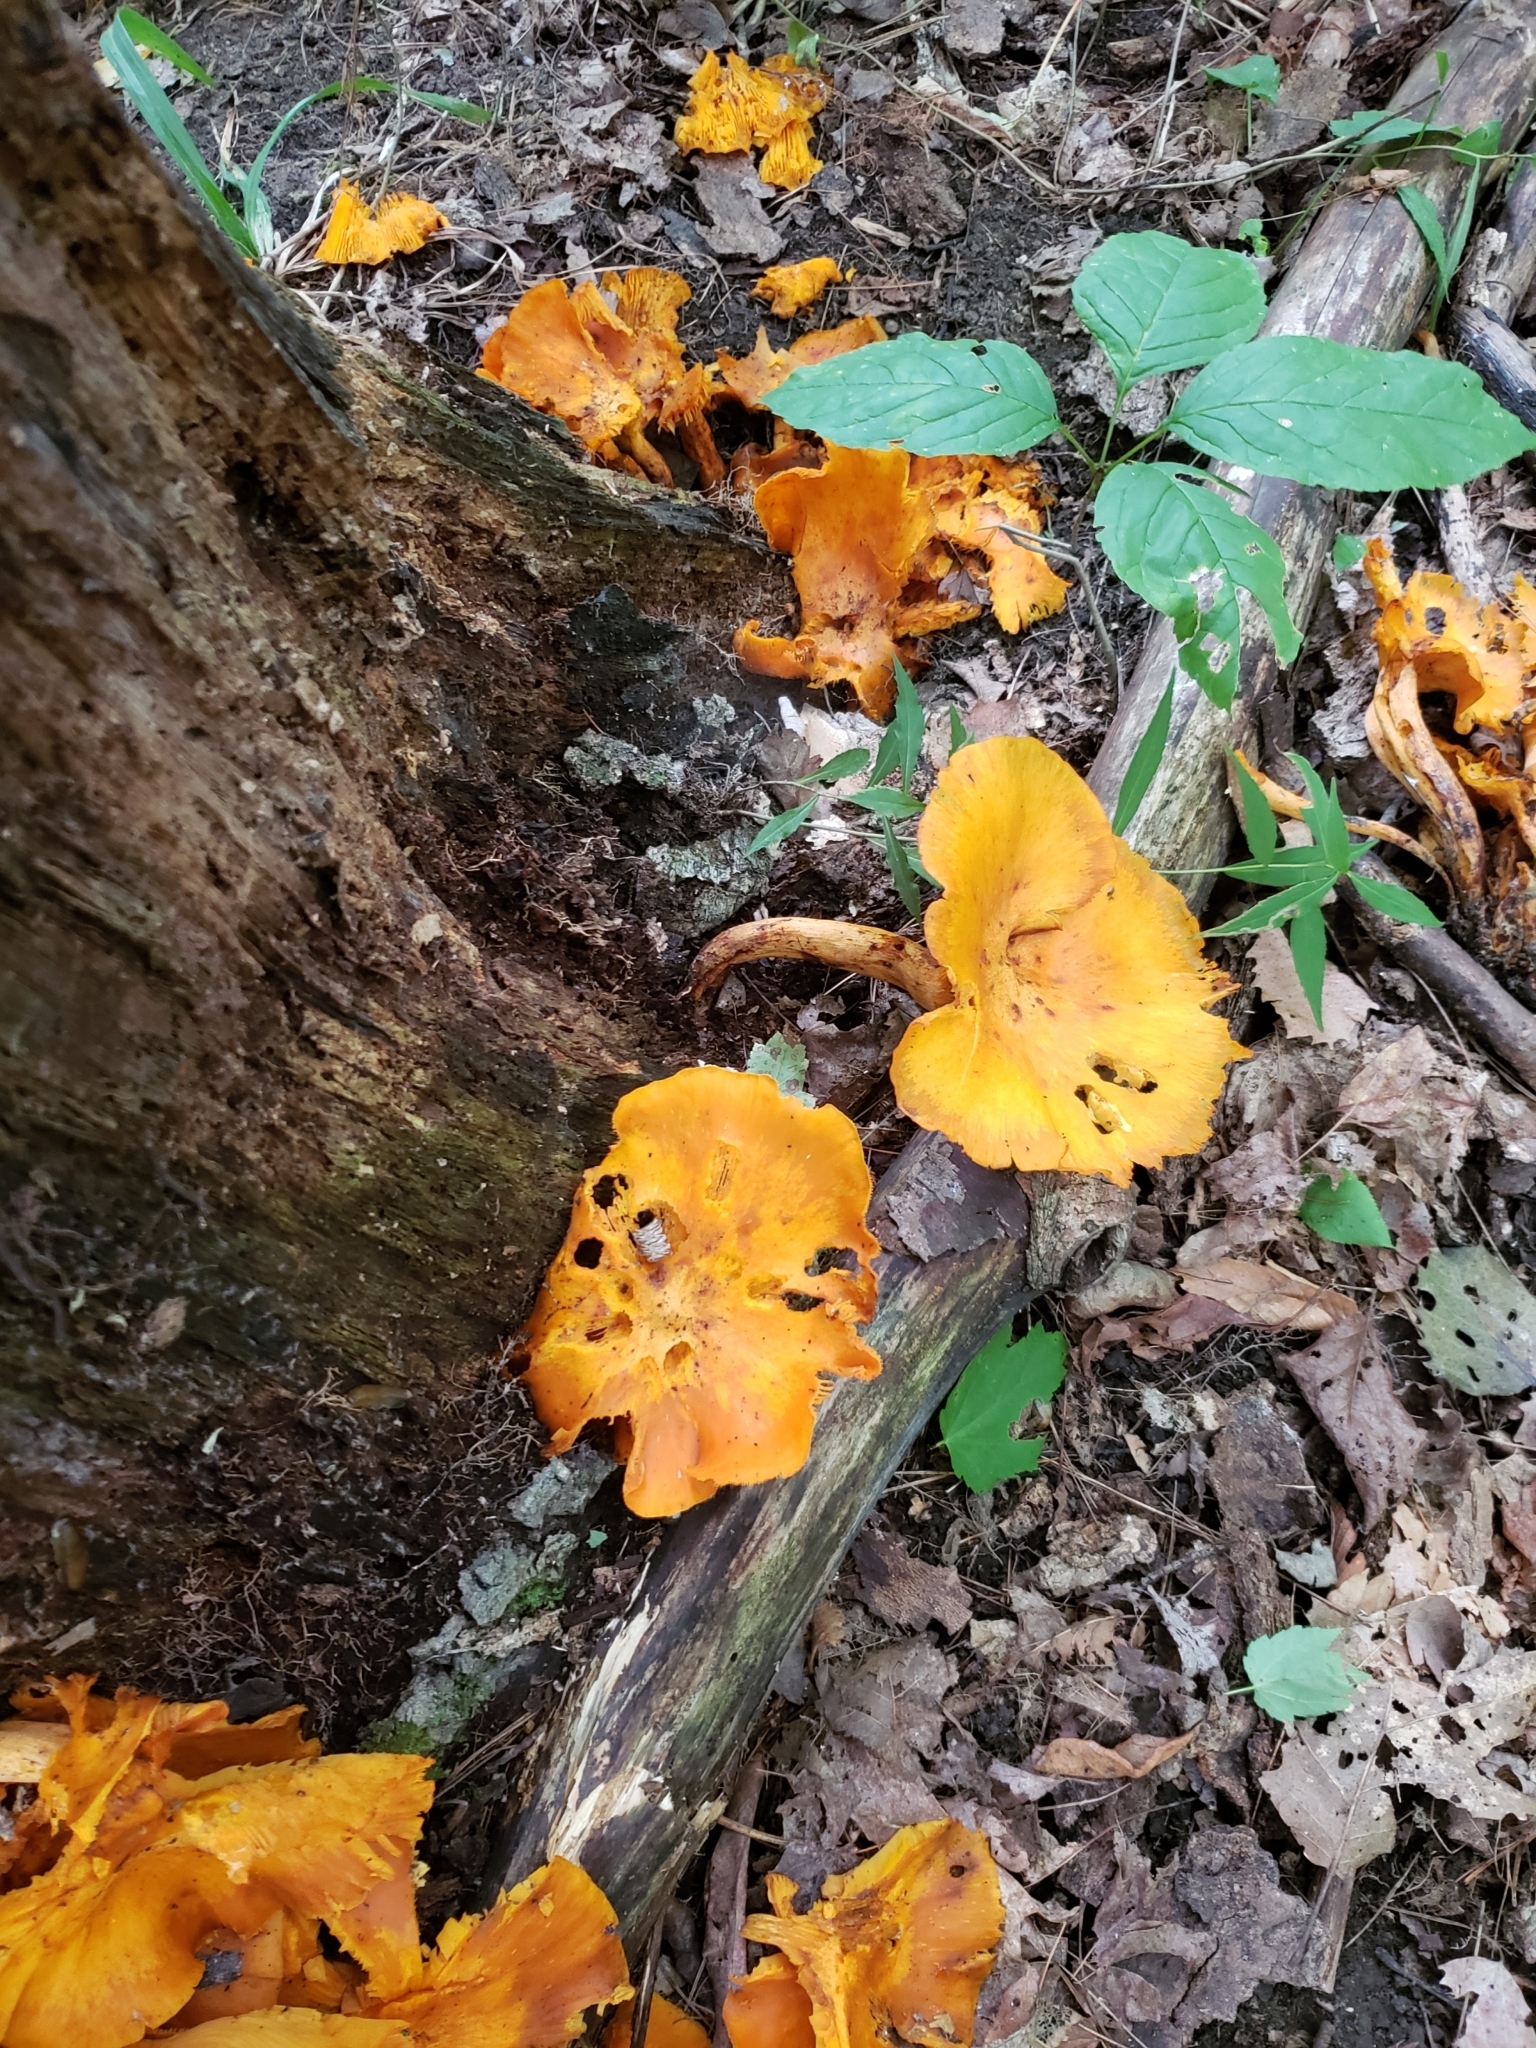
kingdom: Fungi
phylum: Basidiomycota
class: Agaricomycetes
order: Agaricales
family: Omphalotaceae
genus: Omphalotus
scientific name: Omphalotus illudens
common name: Jack o lantern
